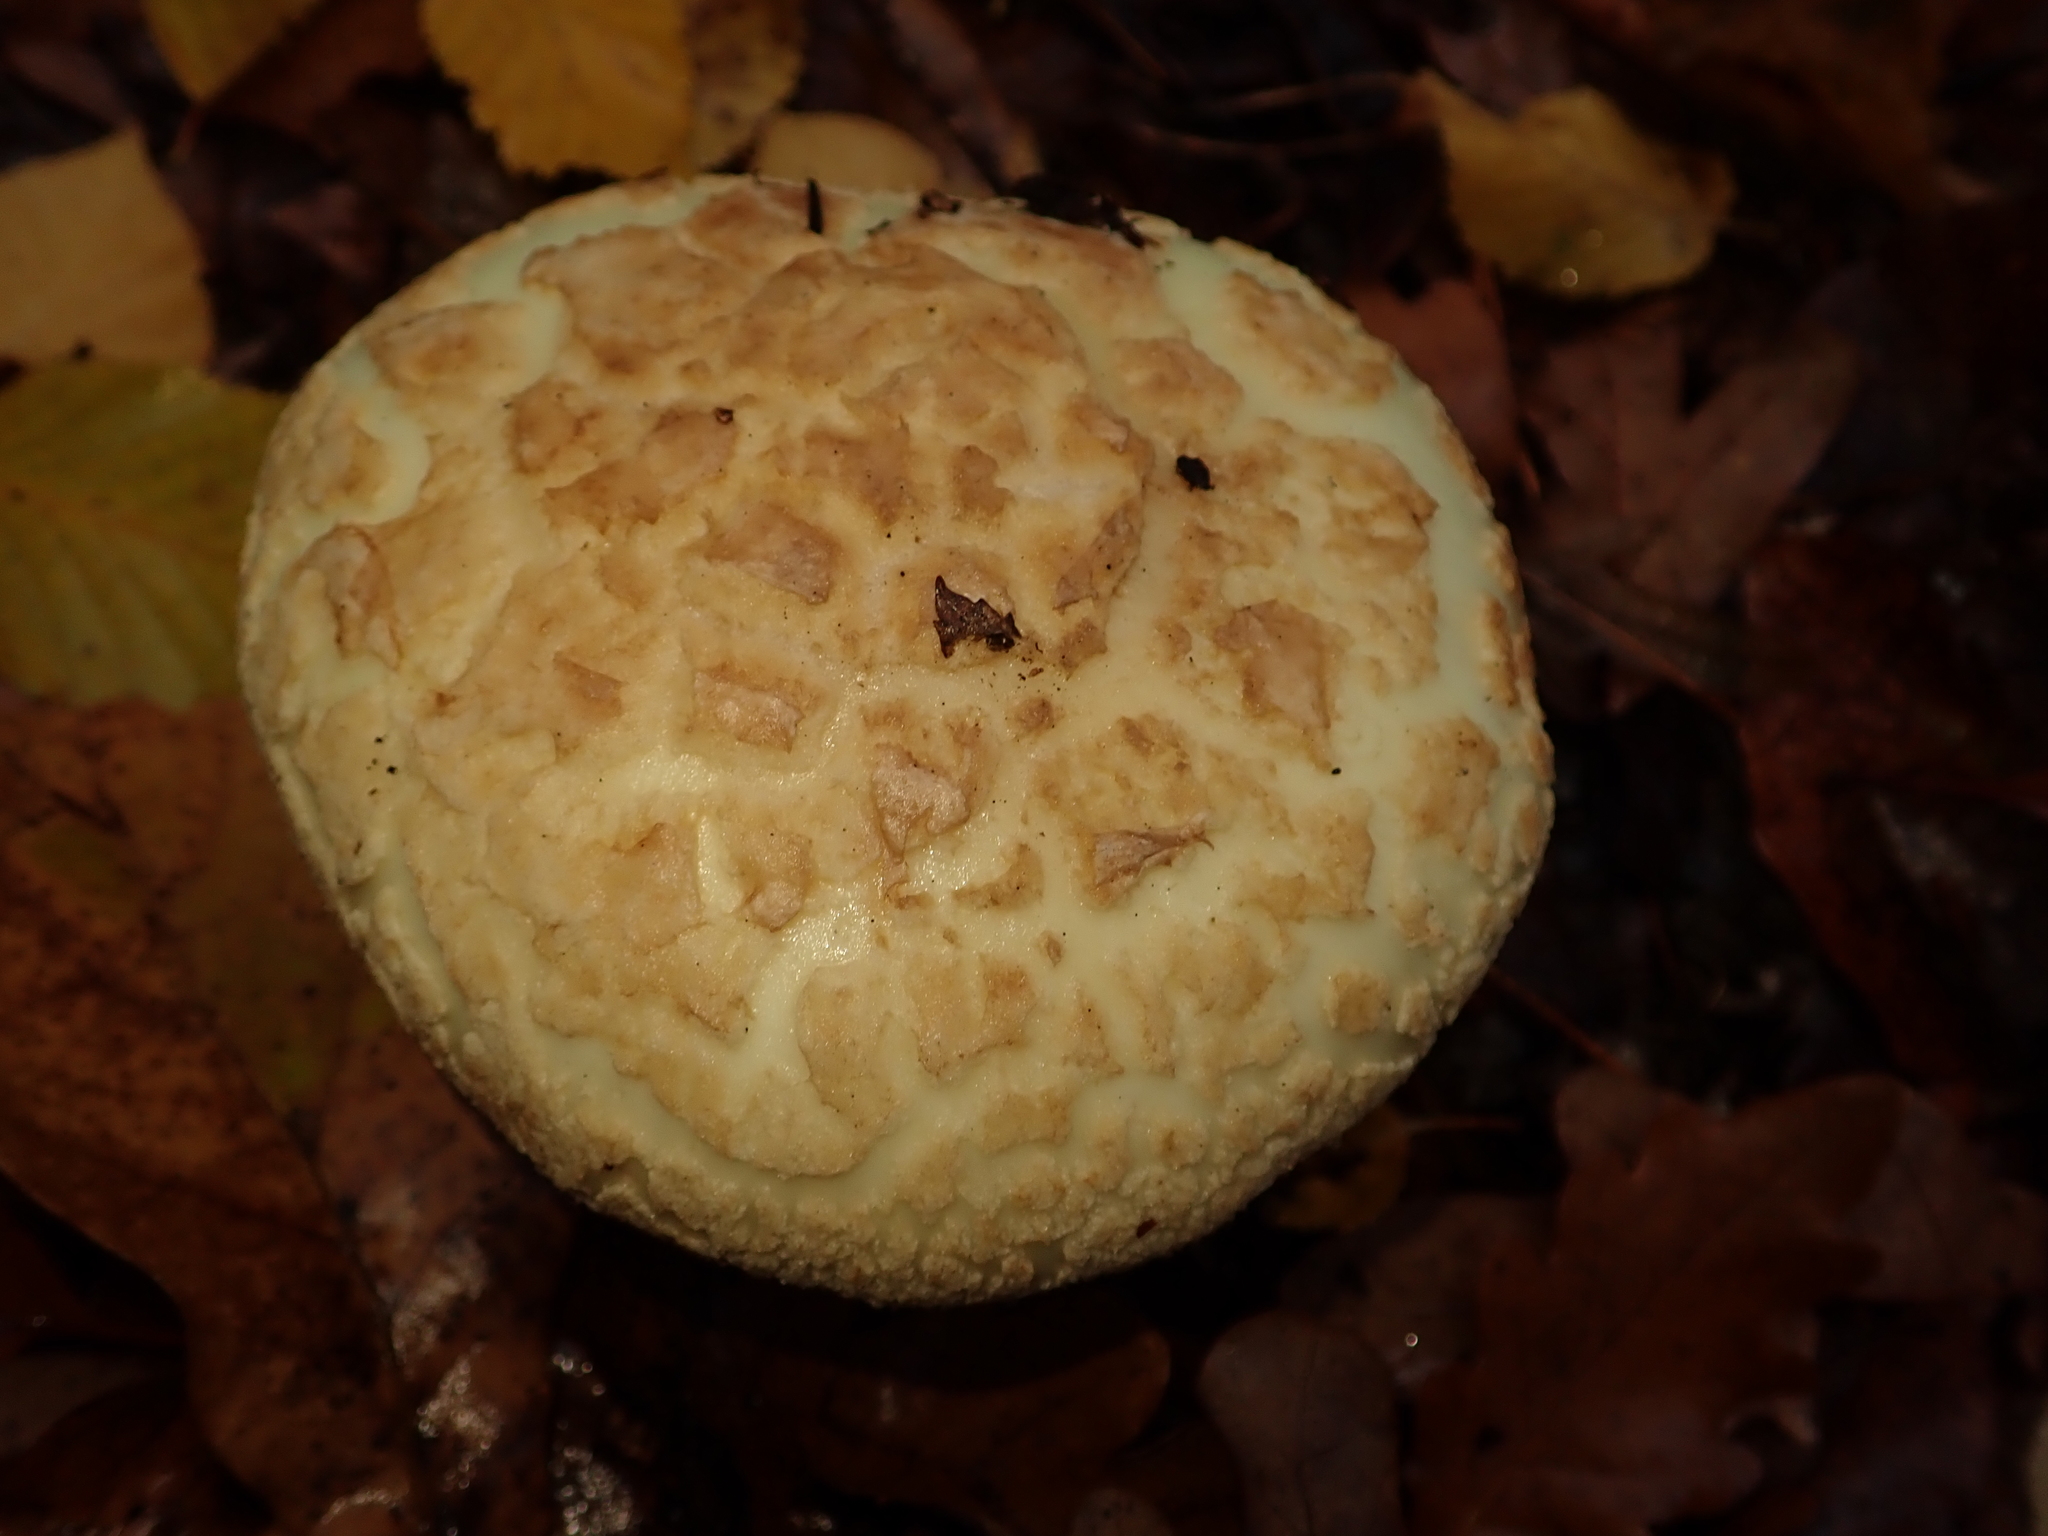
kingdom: Fungi
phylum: Basidiomycota
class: Agaricomycetes
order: Agaricales
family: Amanitaceae
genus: Amanita
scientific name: Amanita citrina
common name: False death-cap
